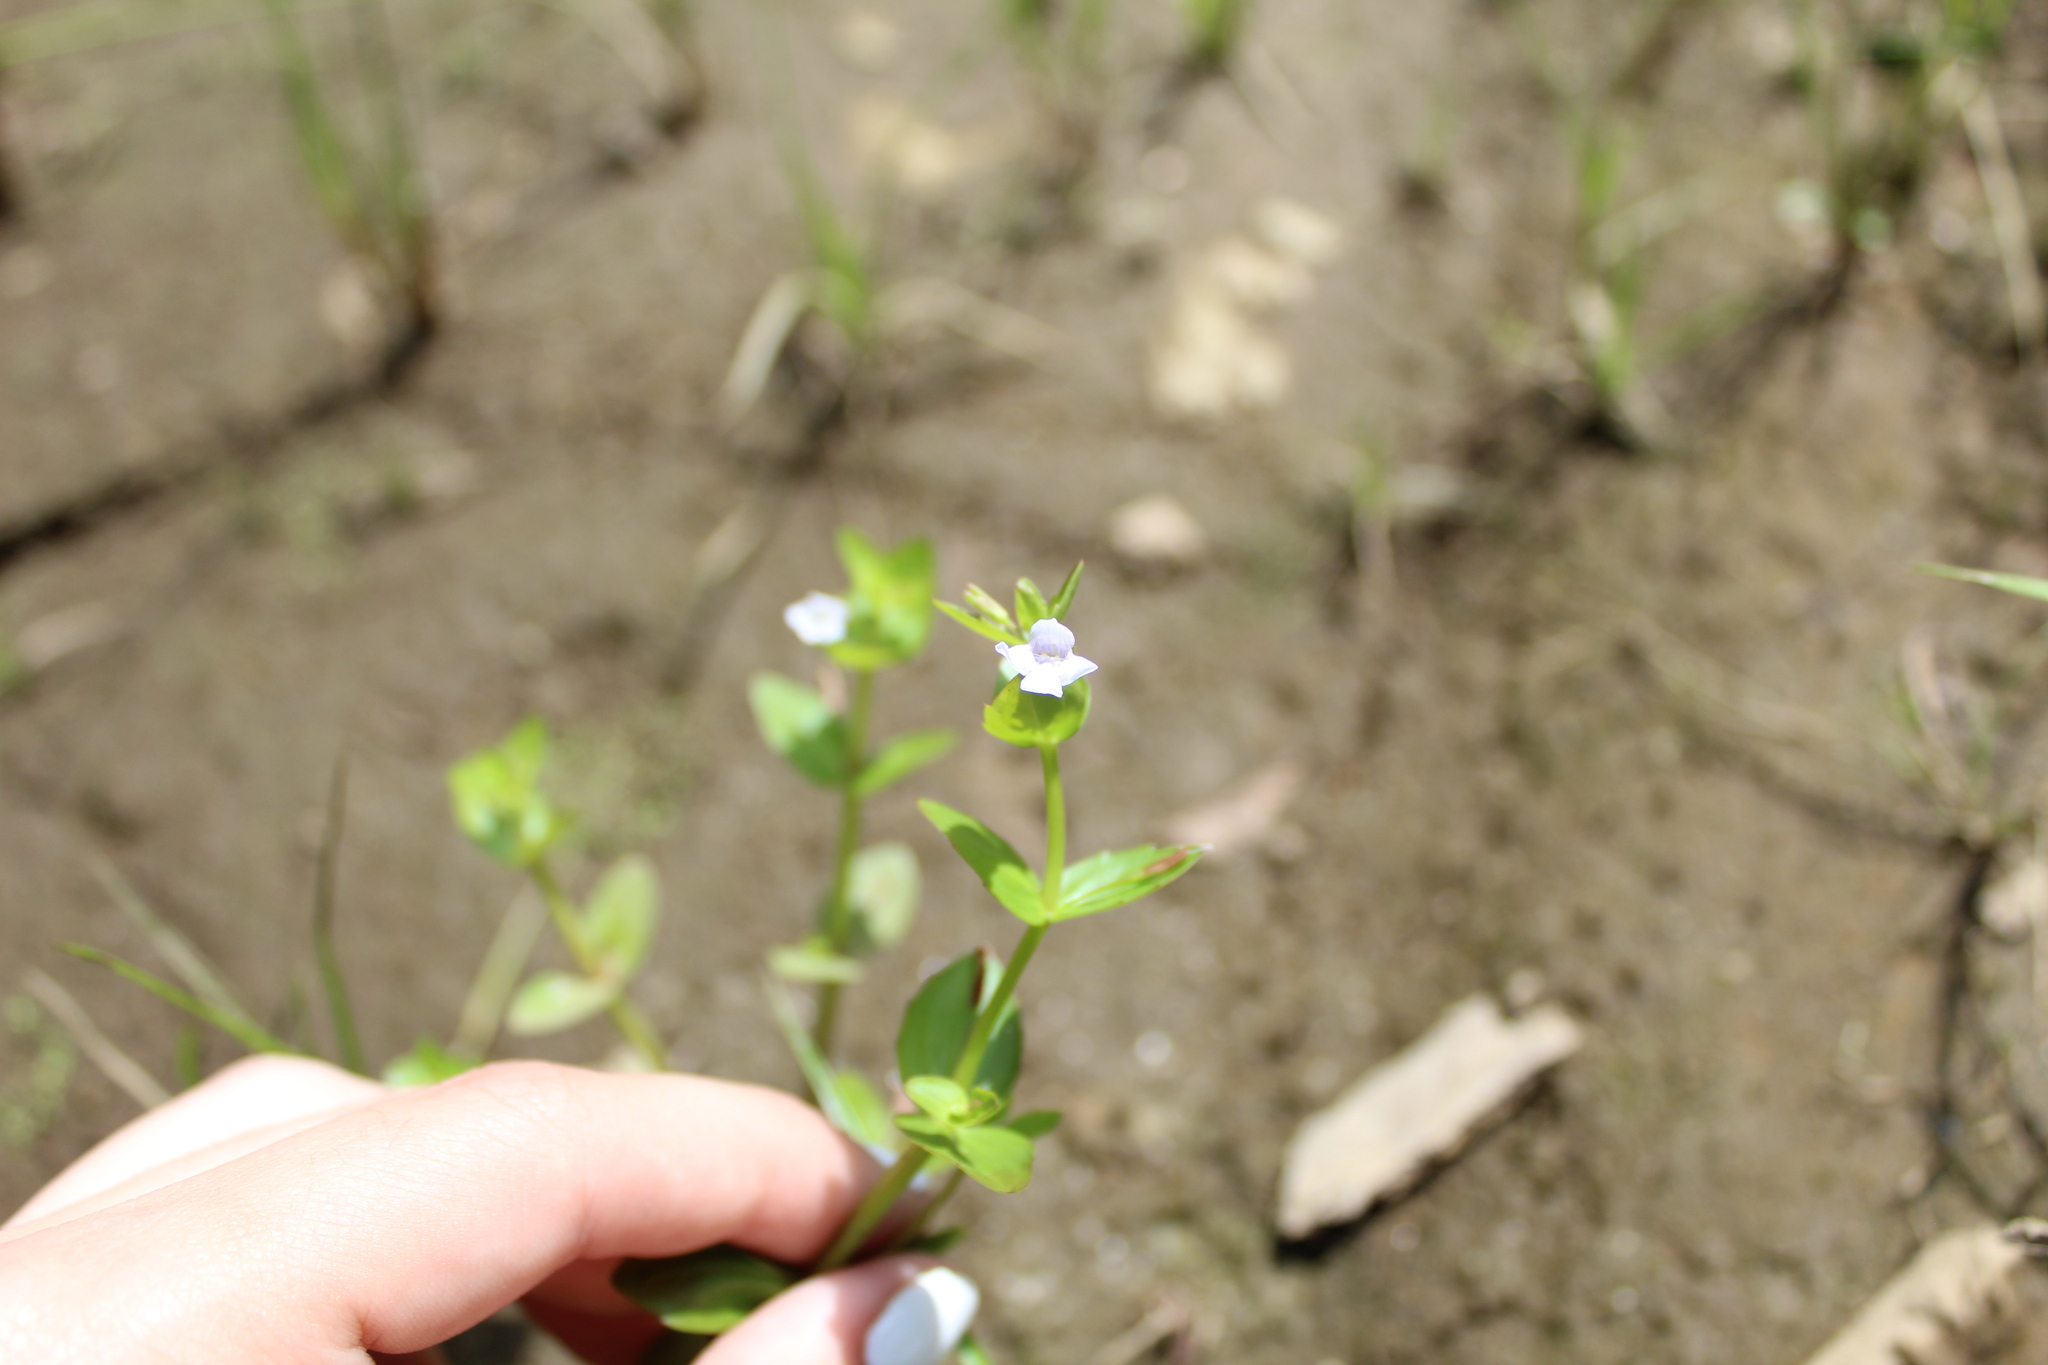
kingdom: Plantae
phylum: Tracheophyta
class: Magnoliopsida
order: Lamiales
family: Linderniaceae
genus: Lindernia
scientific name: Lindernia dubia
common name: Annual false pimpernel
